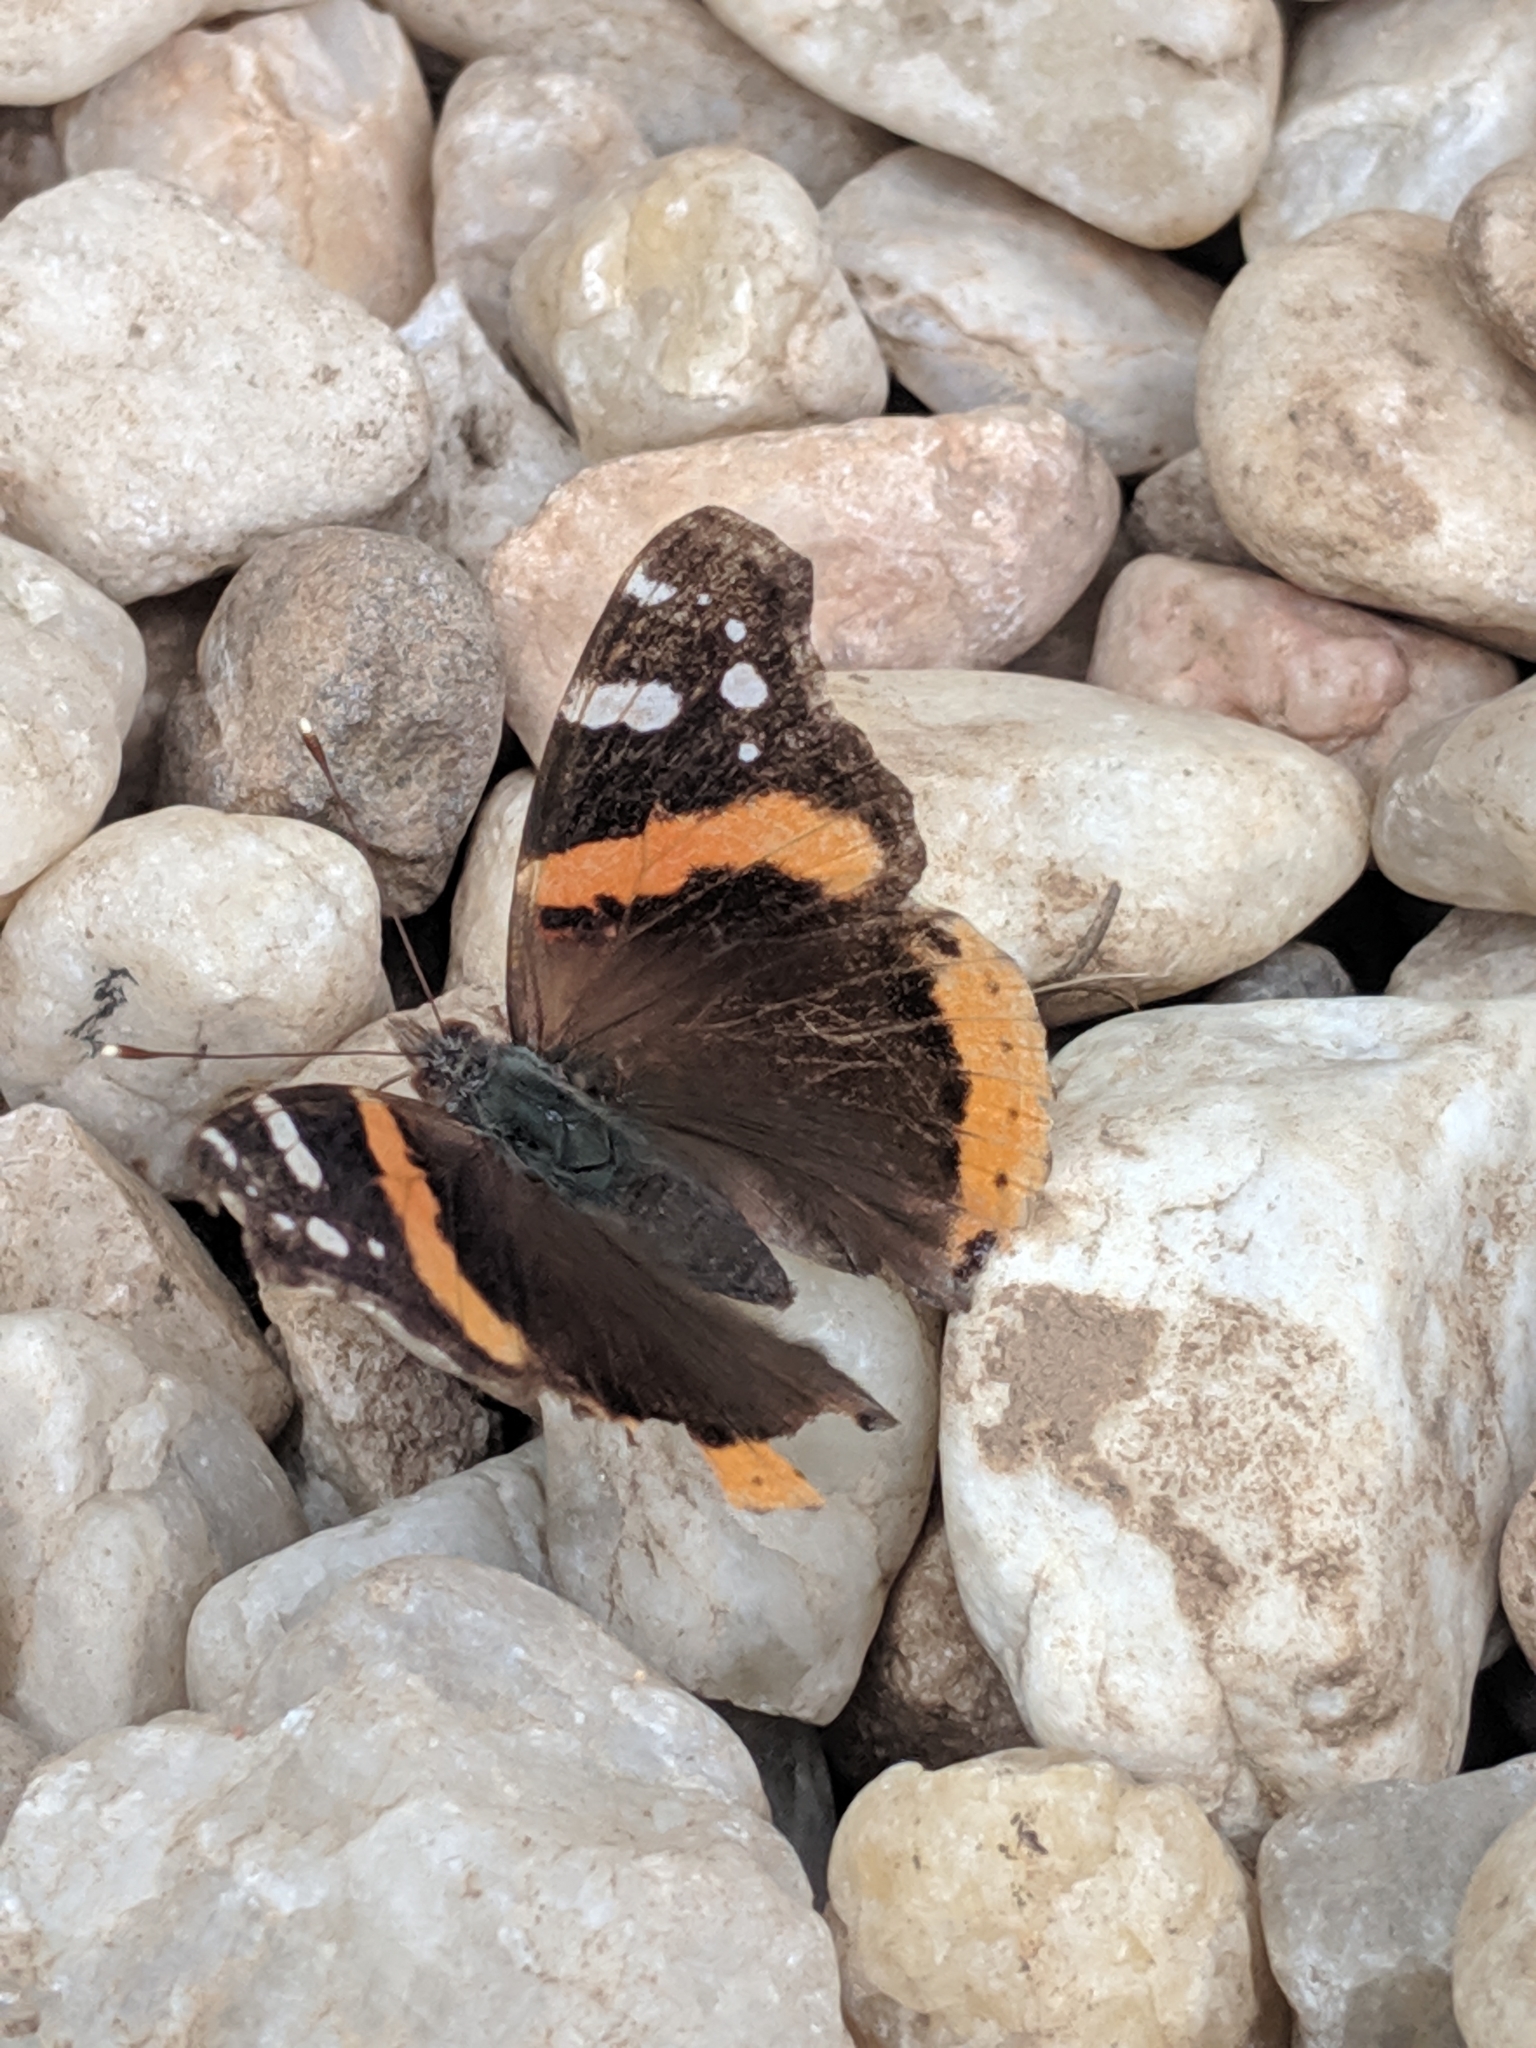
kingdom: Animalia
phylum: Arthropoda
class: Insecta
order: Lepidoptera
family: Nymphalidae
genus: Vanessa
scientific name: Vanessa atalanta
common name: Red admiral
